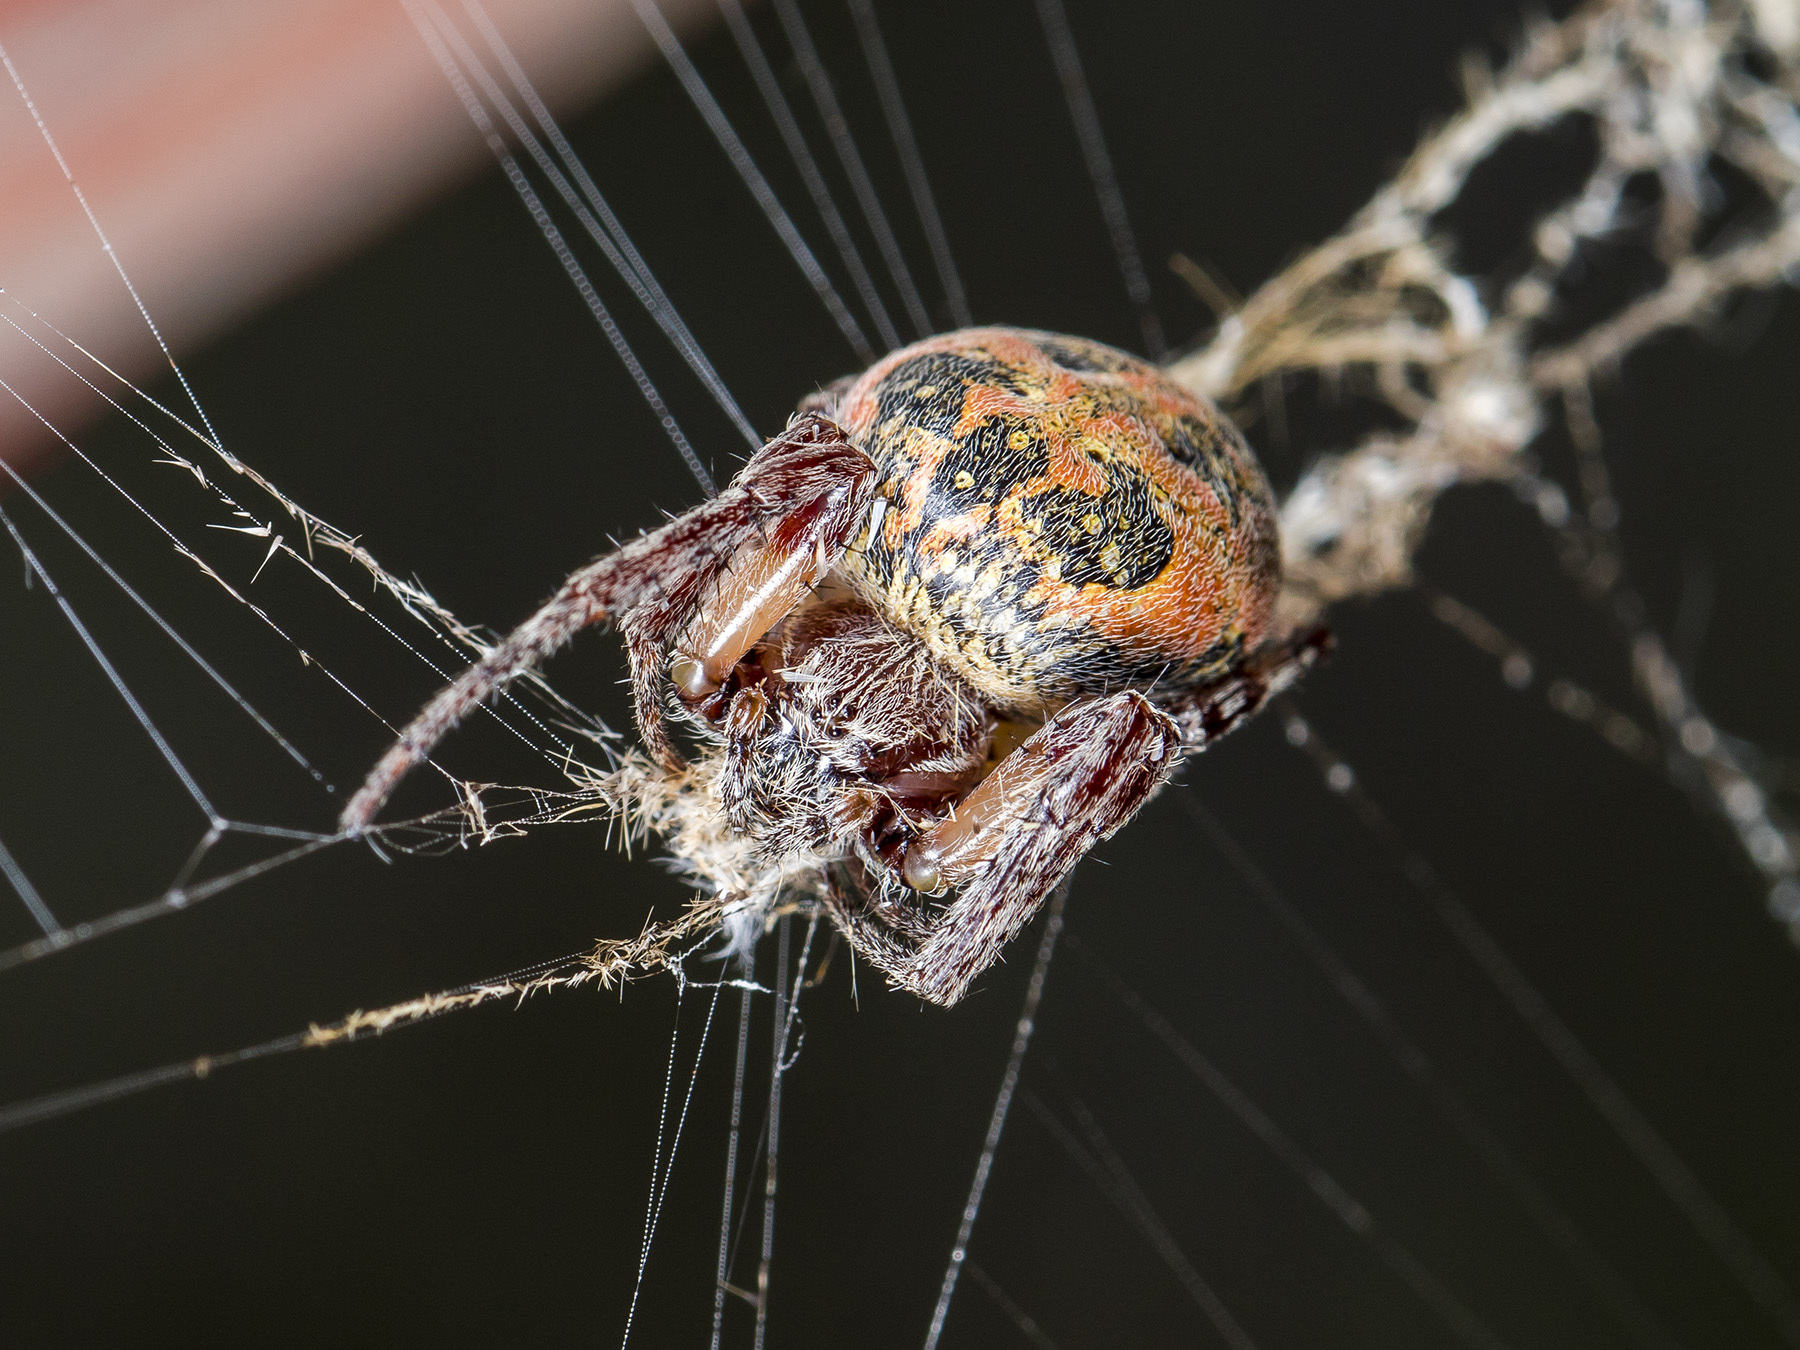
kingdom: Animalia
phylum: Arthropoda
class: Arachnida
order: Araneae
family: Araneidae
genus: Larinioides
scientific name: Larinioides suspicax
